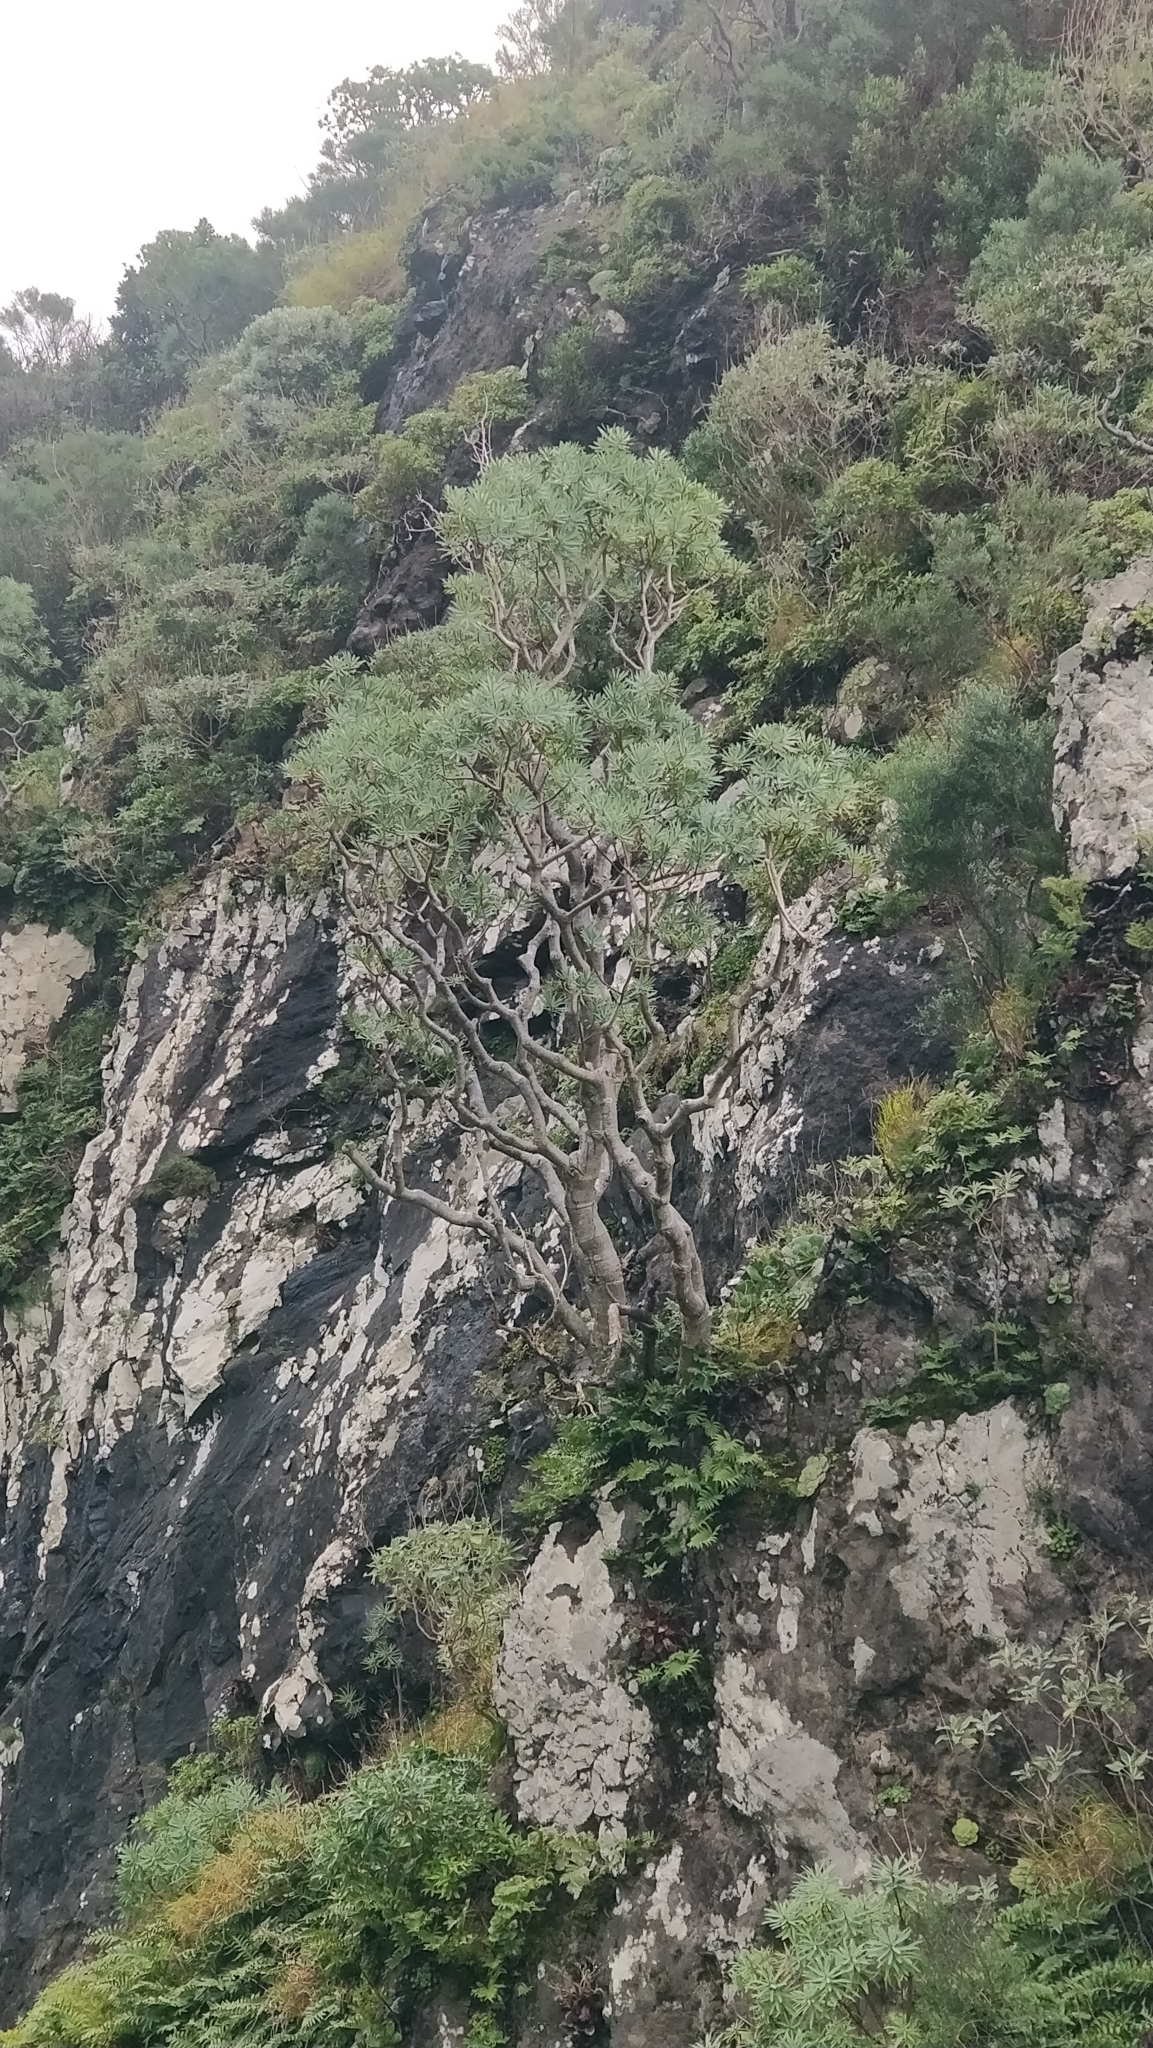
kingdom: Plantae
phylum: Tracheophyta
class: Magnoliopsida
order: Malpighiales
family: Euphorbiaceae
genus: Euphorbia
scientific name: Euphorbia piscatoria
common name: Fish-stunning spurge
